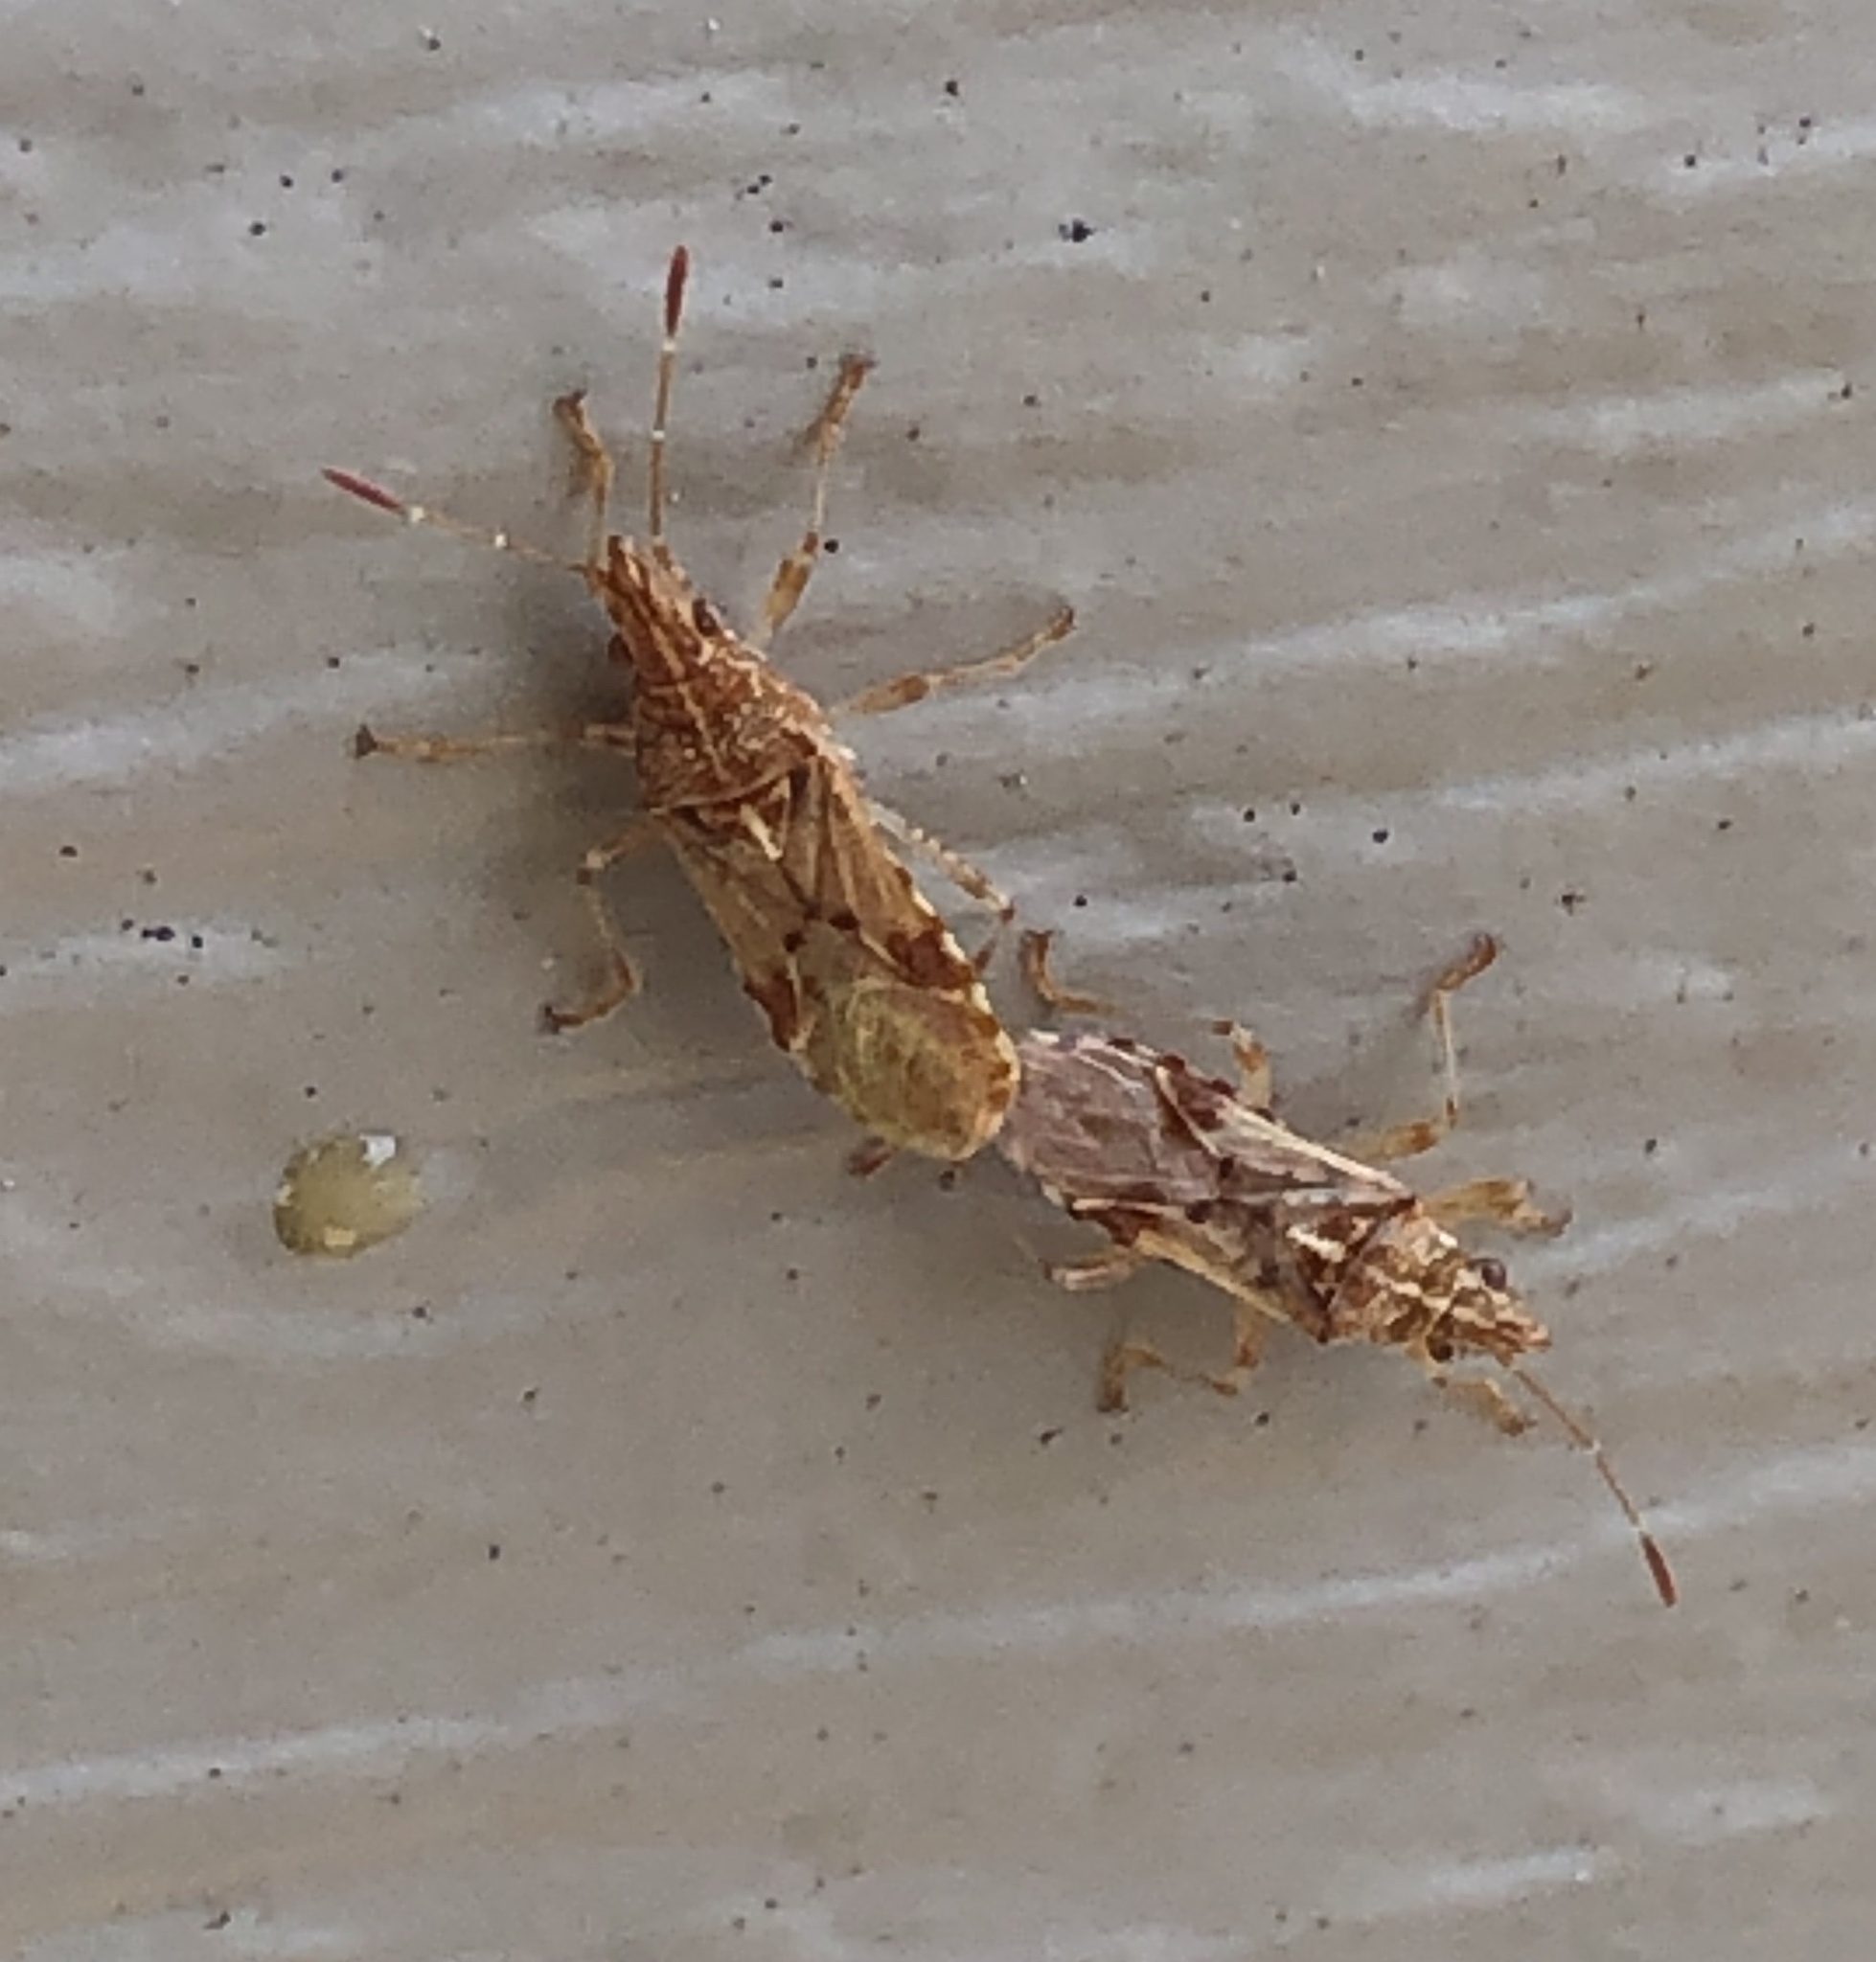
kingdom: Animalia
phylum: Arthropoda
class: Insecta
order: Hemiptera
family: Lygaeidae
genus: Belonochilus
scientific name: Belonochilus numenius
